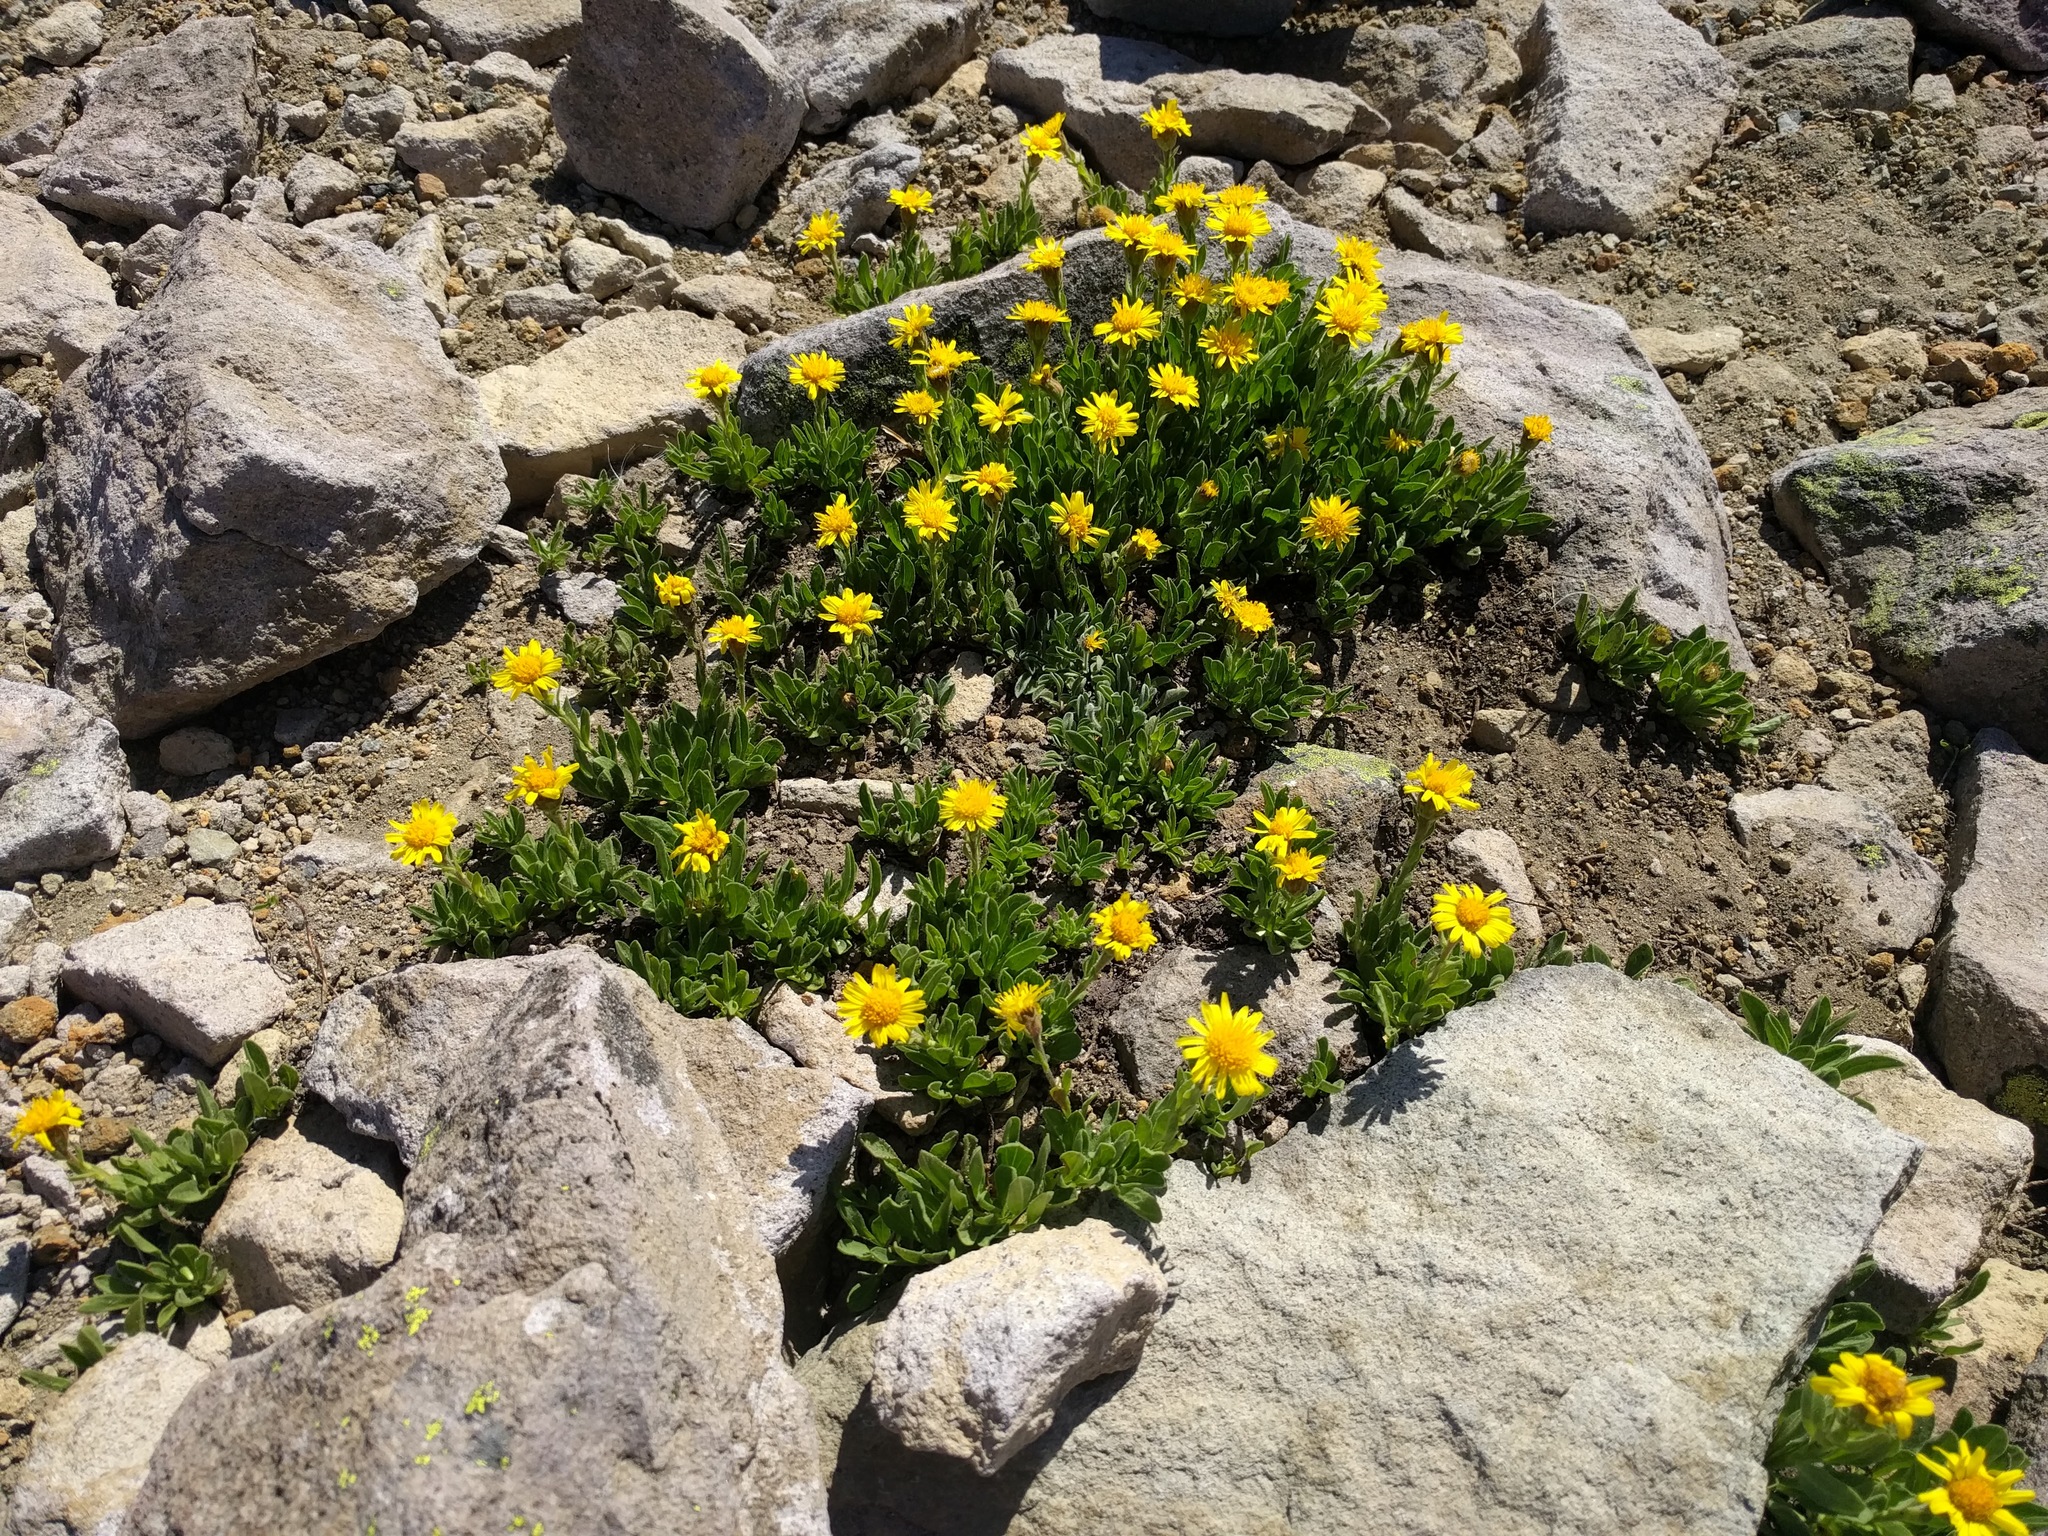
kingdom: Plantae
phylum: Tracheophyta
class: Magnoliopsida
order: Asterales
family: Asteraceae
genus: Tonestus
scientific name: Tonestus lyallii
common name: Lyall's goldenweed
